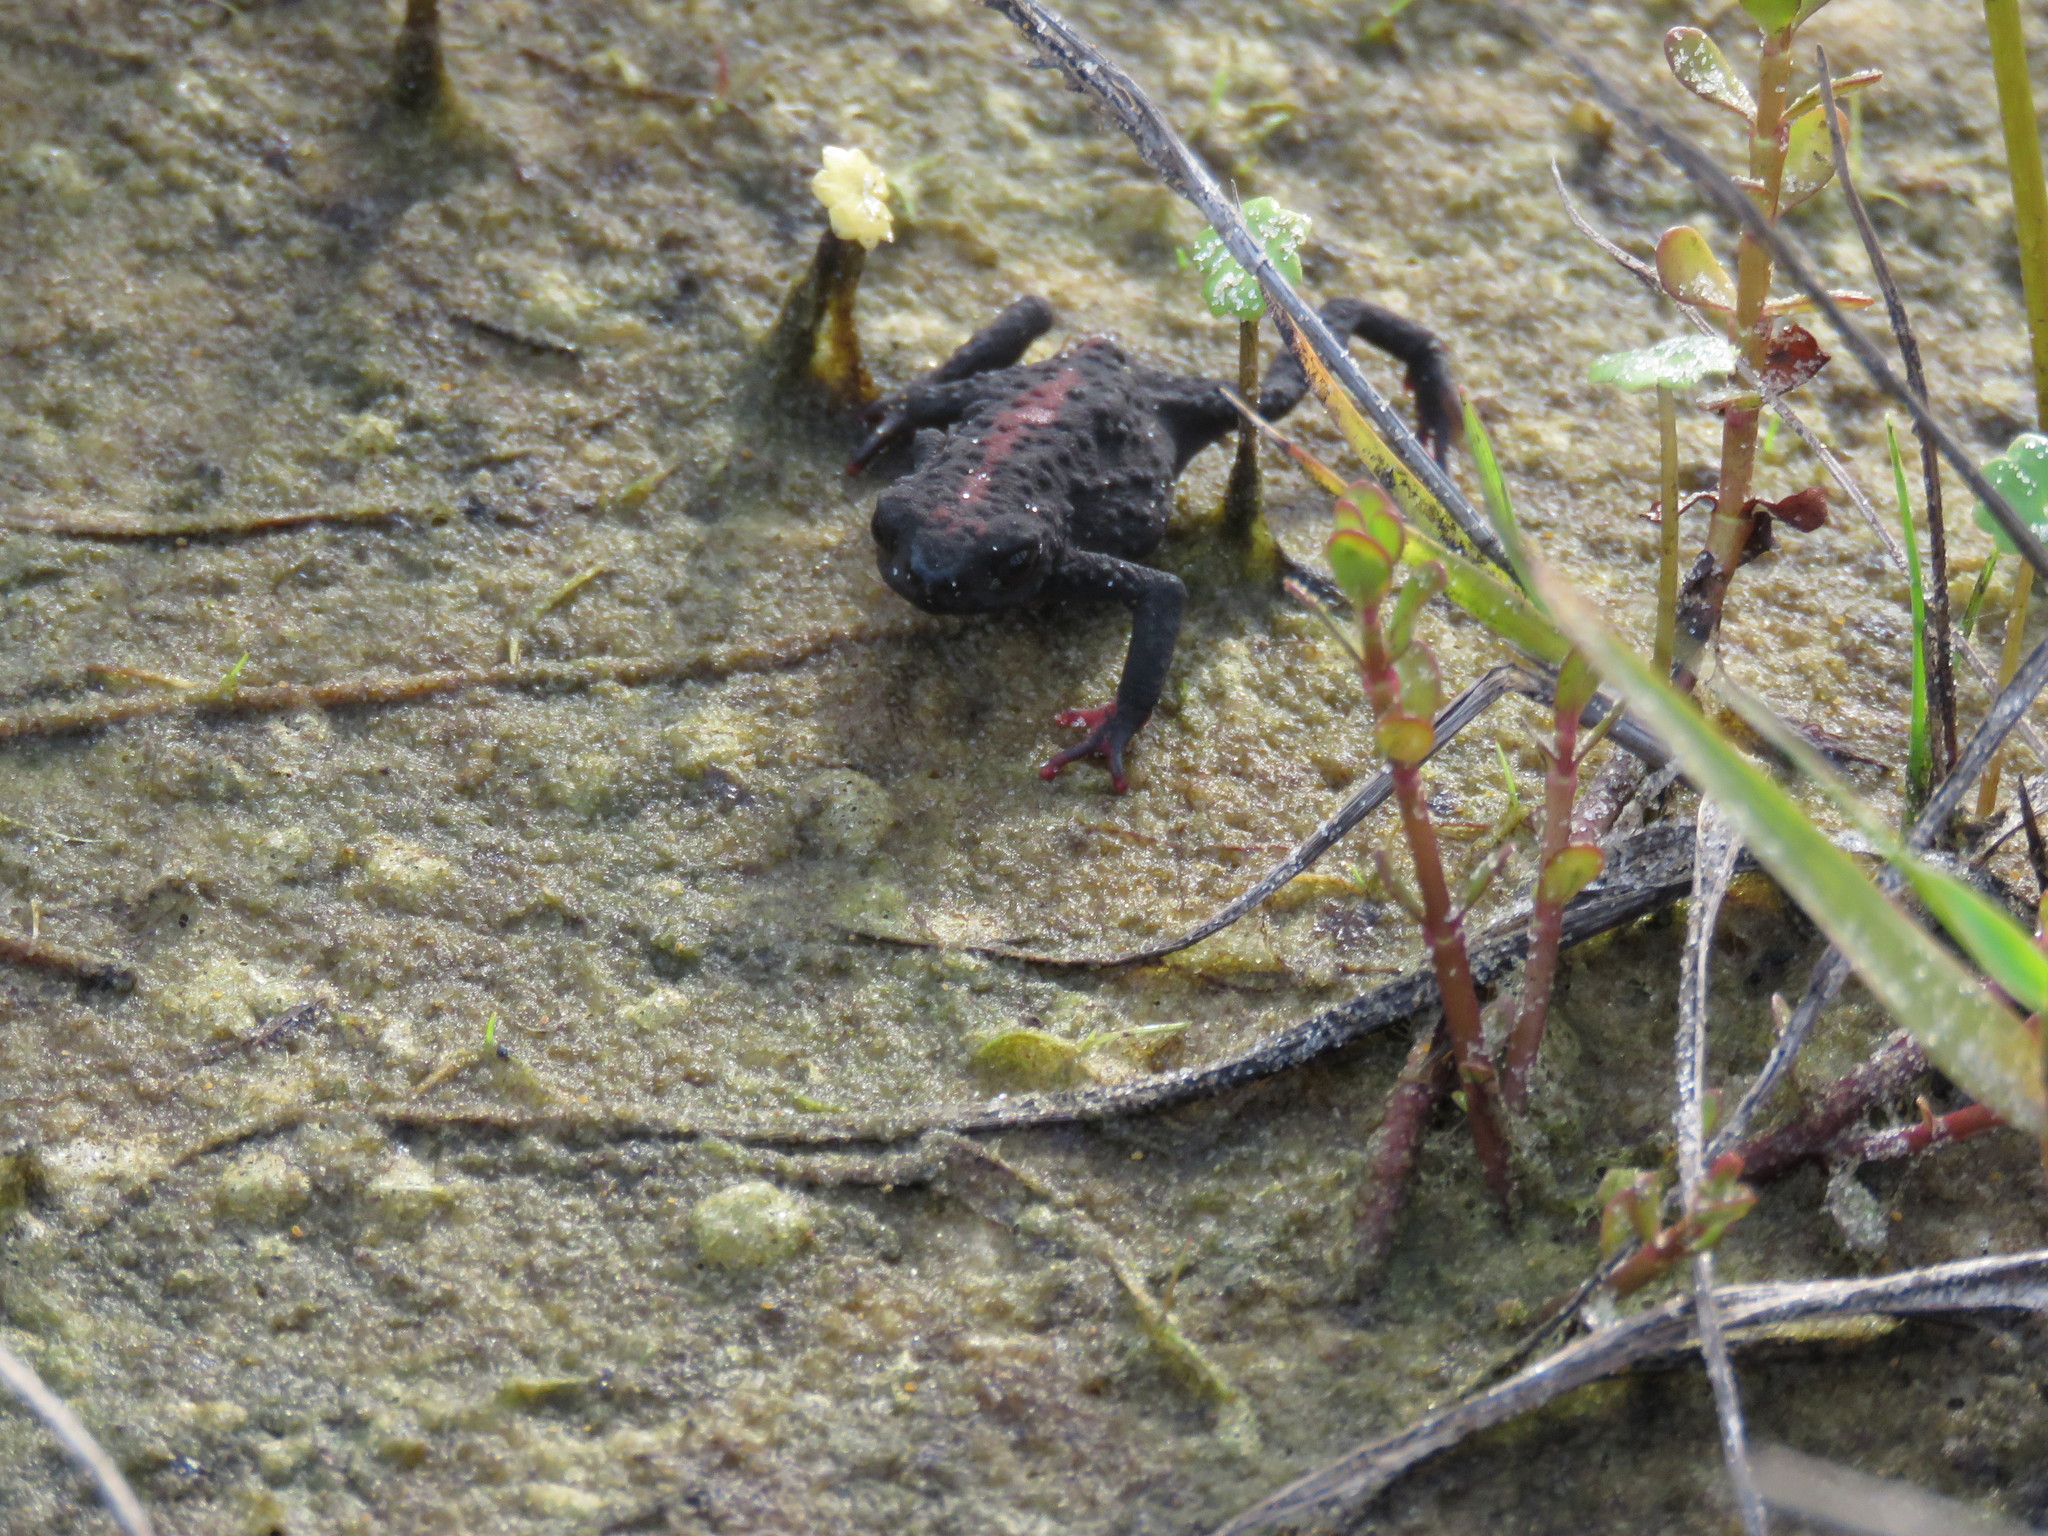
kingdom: Animalia
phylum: Chordata
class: Amphibia
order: Anura
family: Bufonidae
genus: Melanophryniscus
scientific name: Melanophryniscus dorsalis
